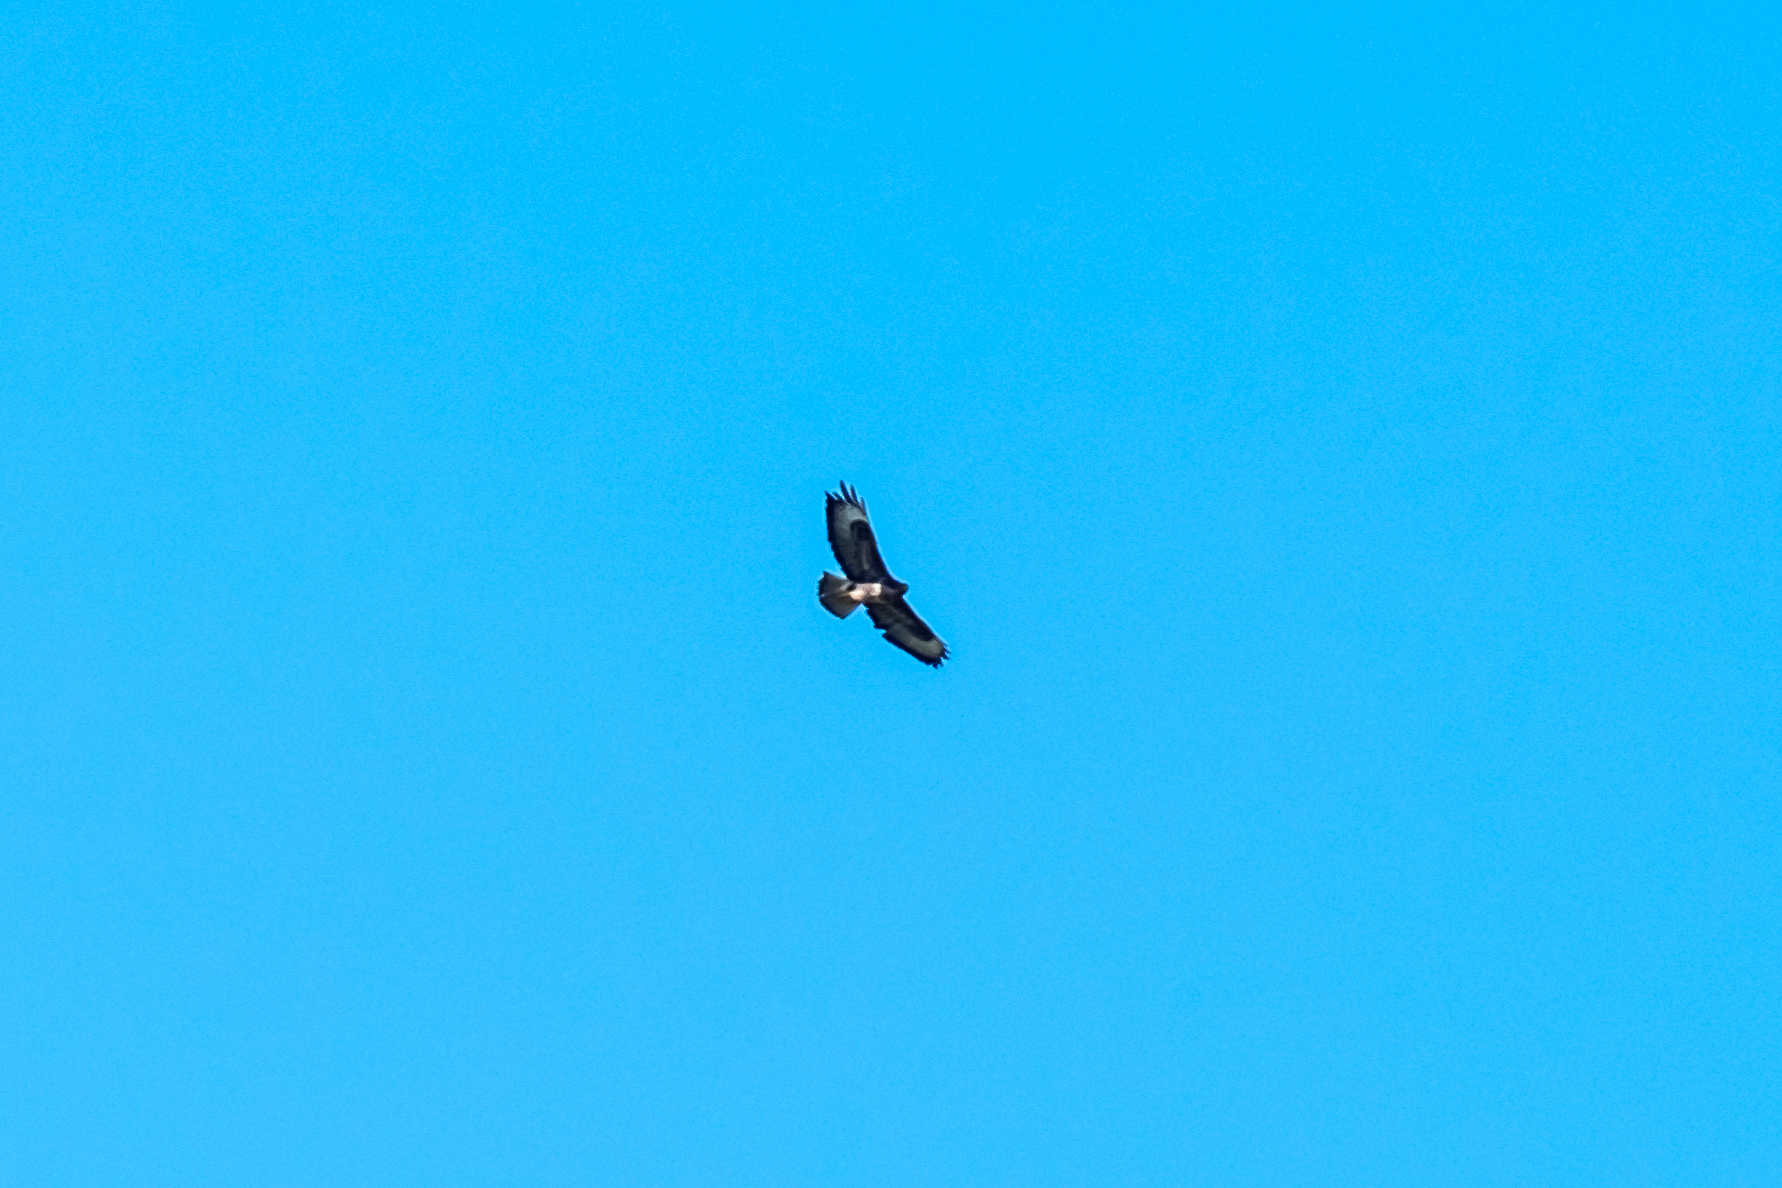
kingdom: Animalia
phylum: Chordata
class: Aves
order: Accipitriformes
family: Accipitridae
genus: Buteo
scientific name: Buteo buteo
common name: Common buzzard
